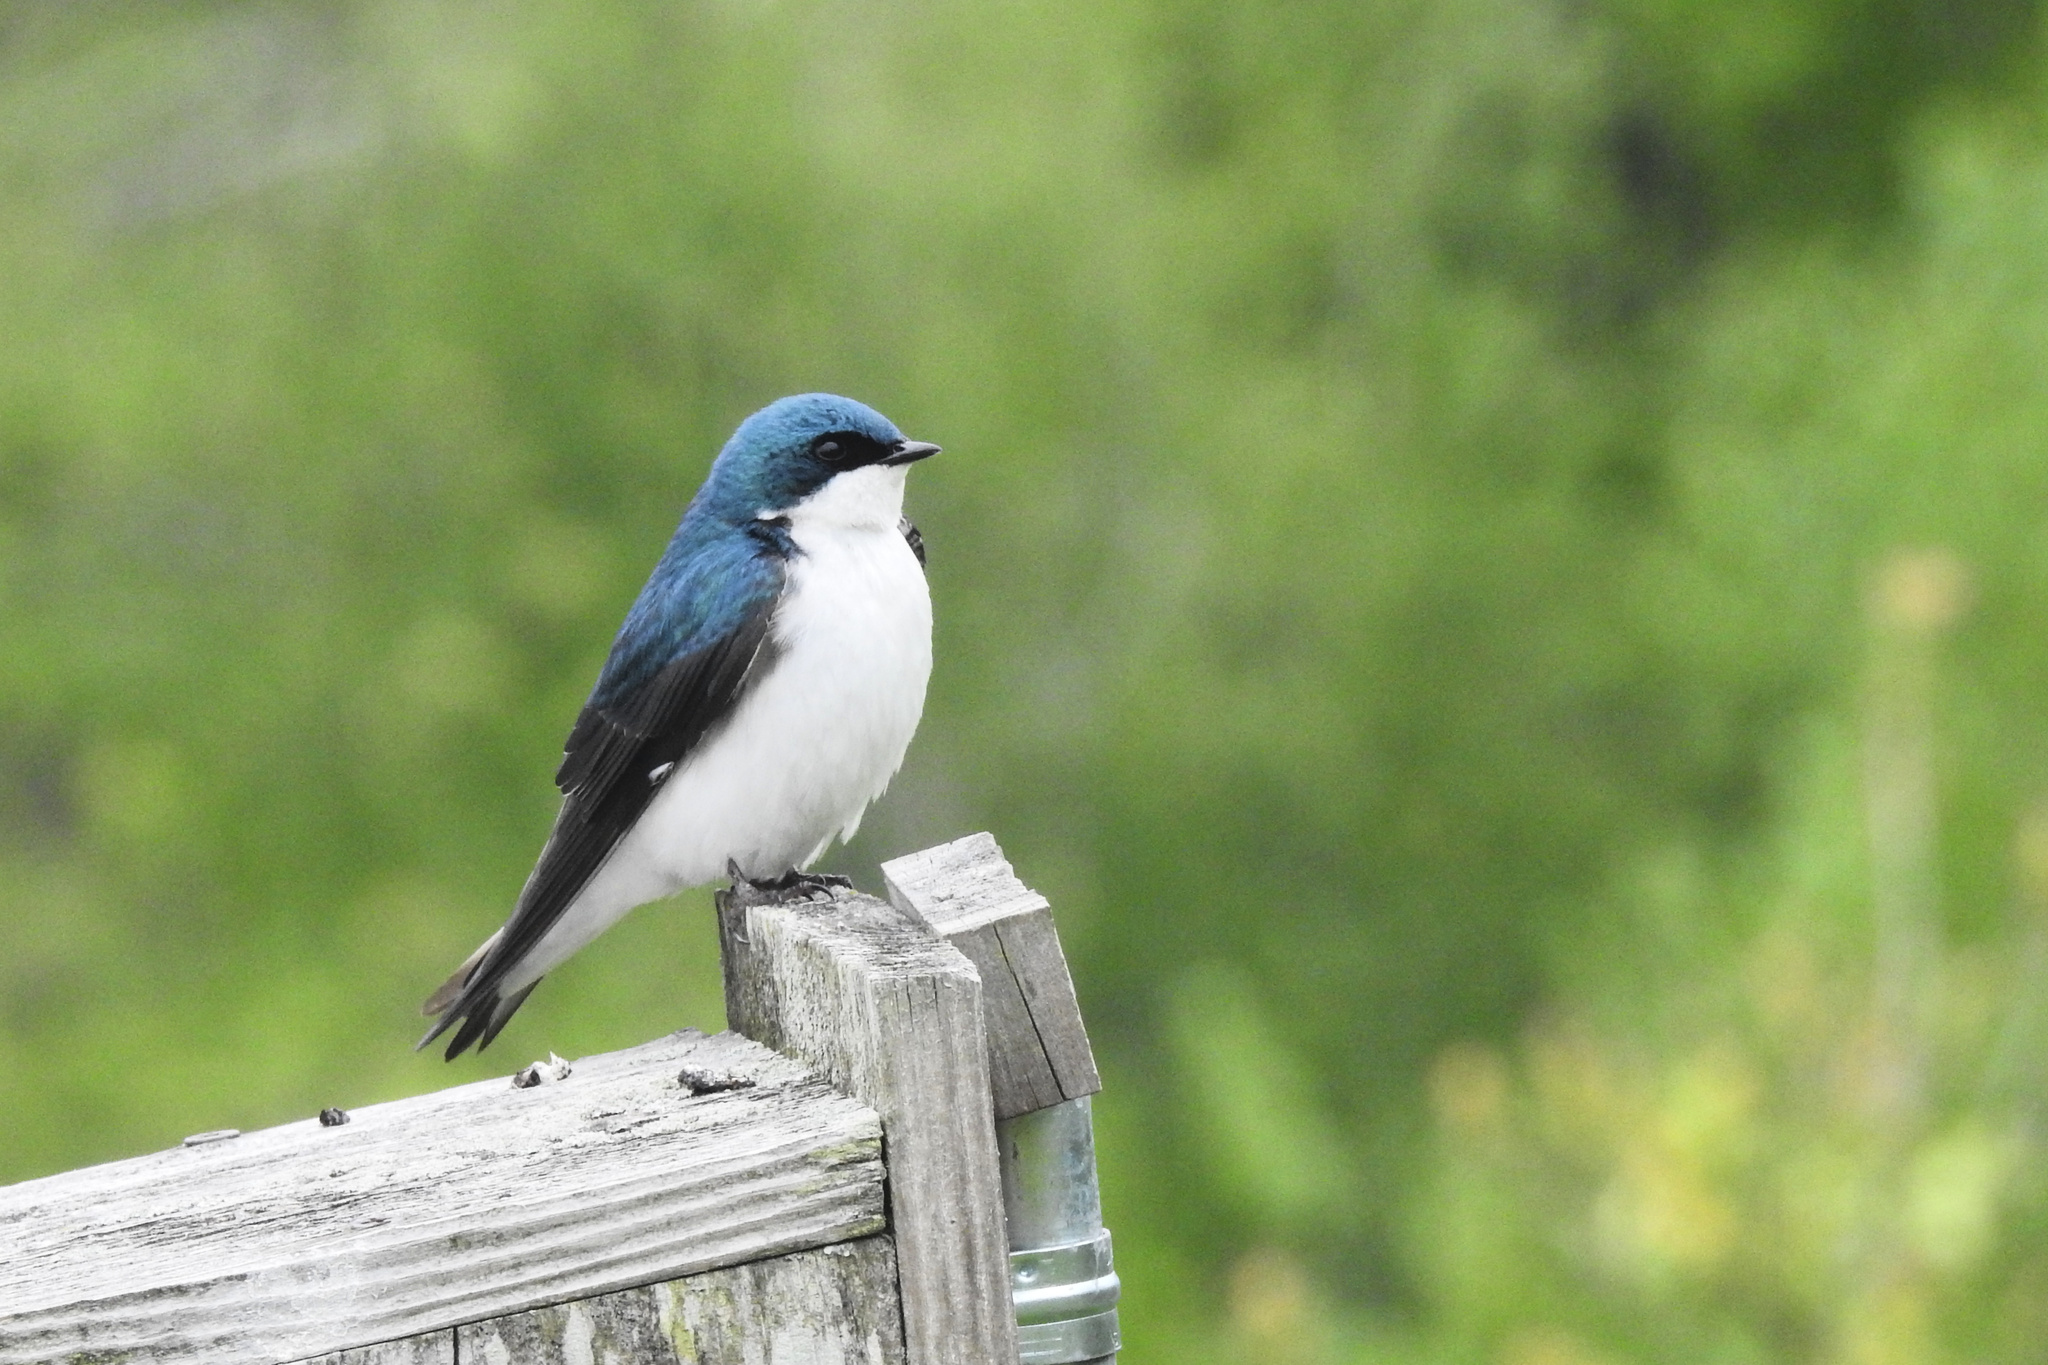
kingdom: Animalia
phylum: Chordata
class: Aves
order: Passeriformes
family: Hirundinidae
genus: Tachycineta
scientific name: Tachycineta bicolor
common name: Tree swallow
